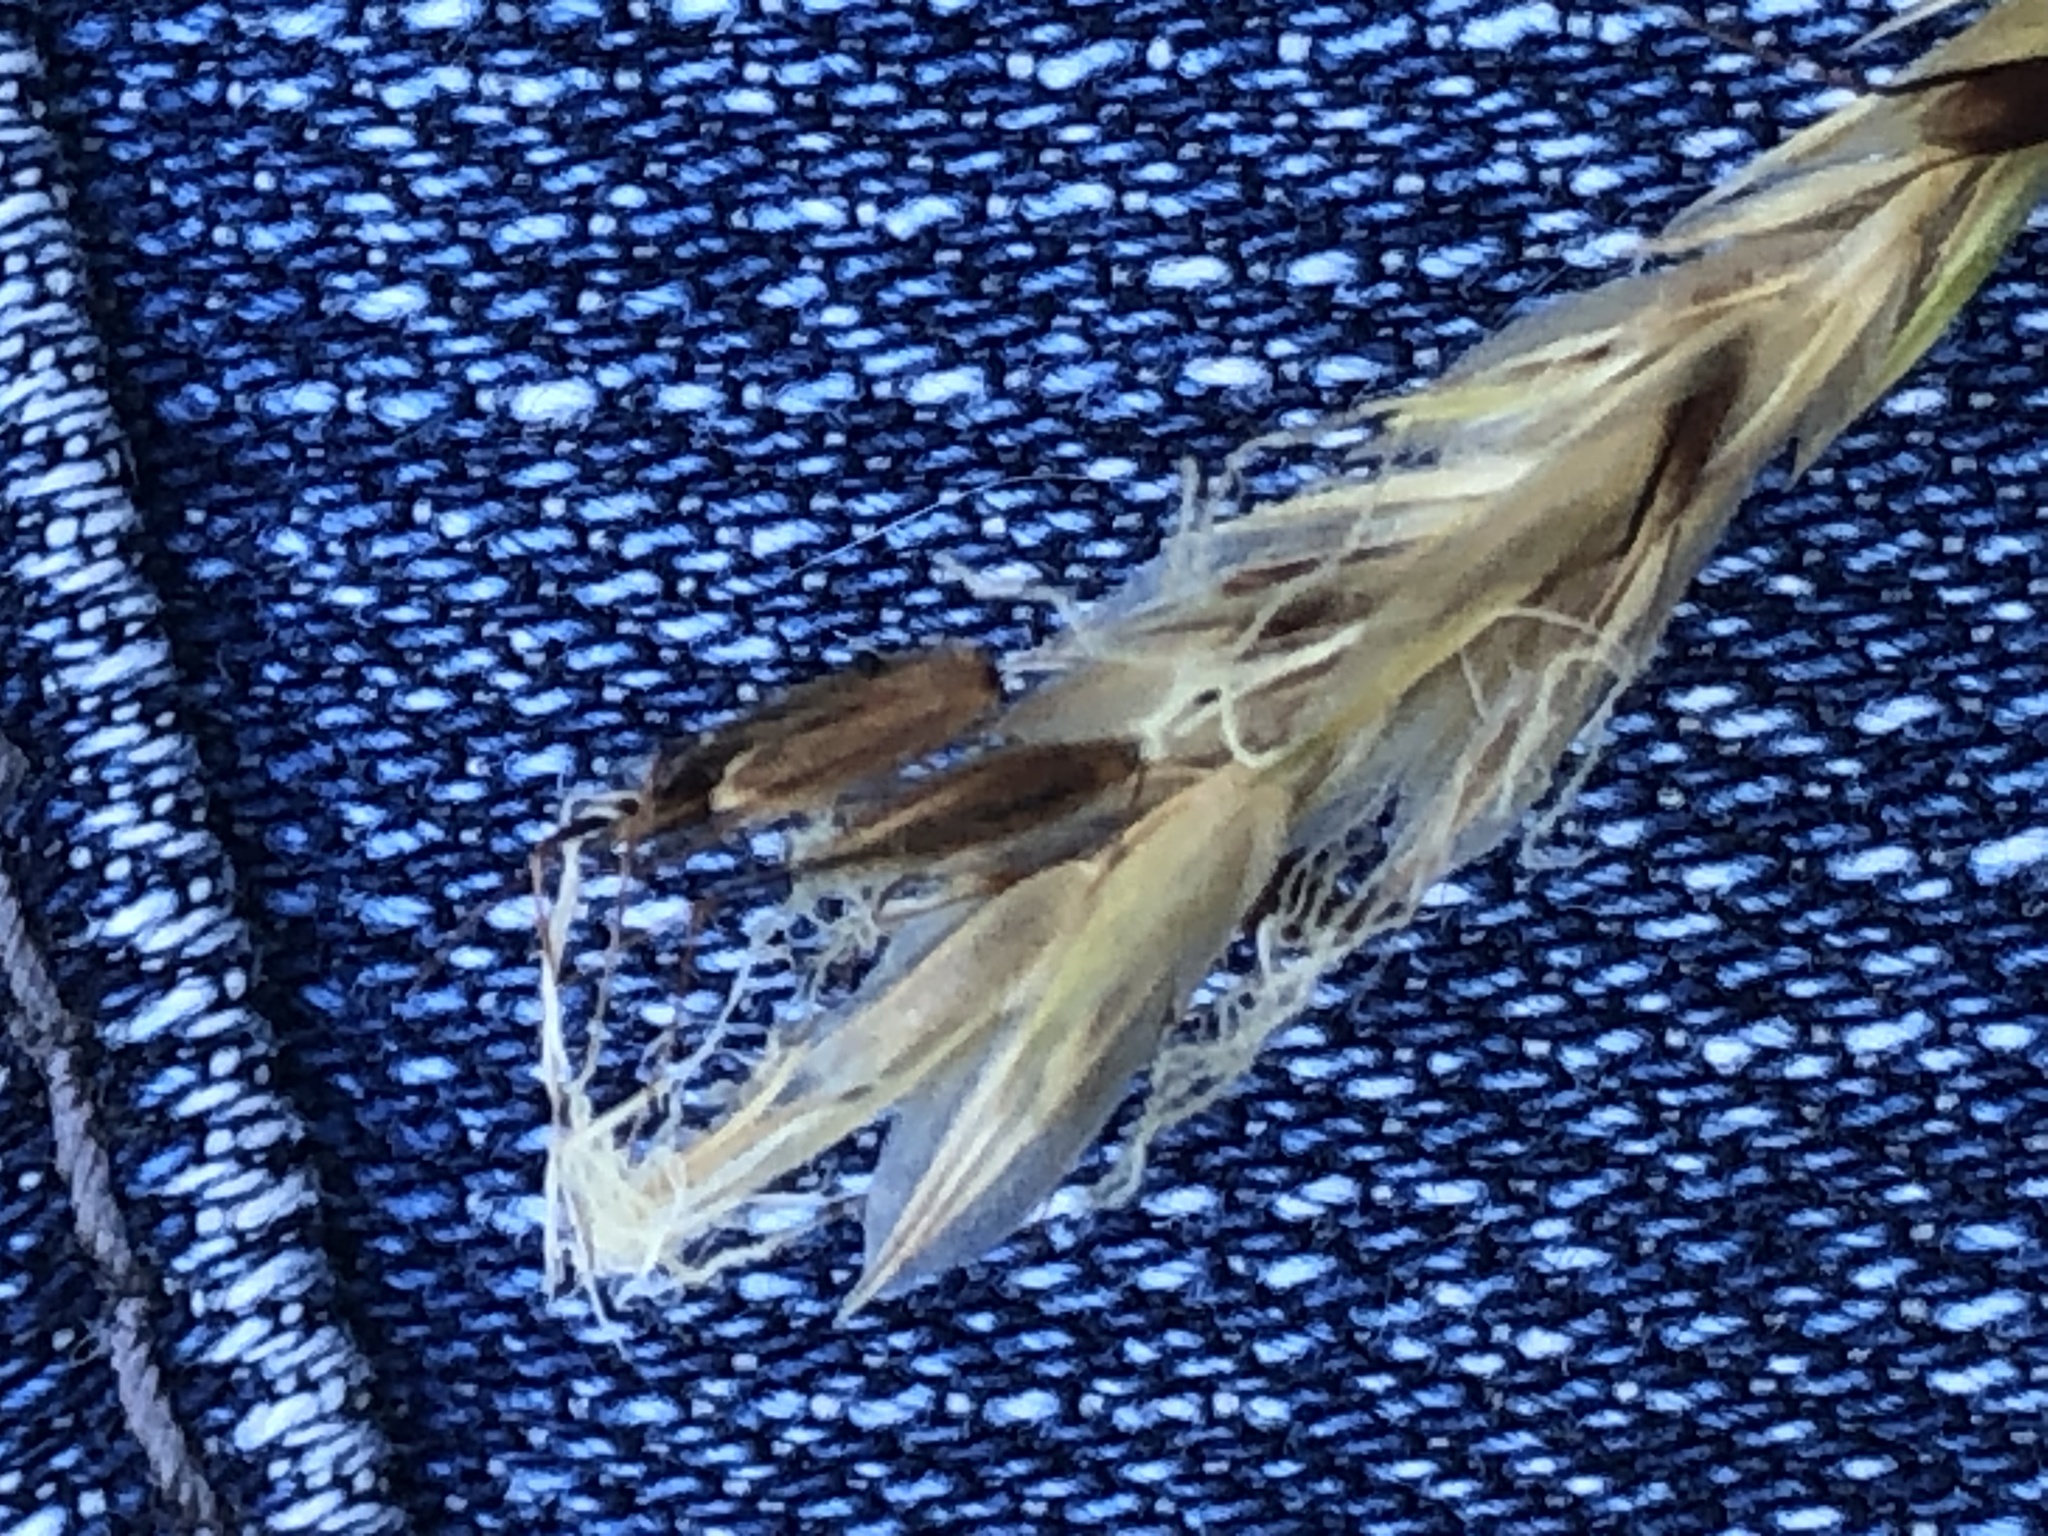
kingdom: Plantae
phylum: Tracheophyta
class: Liliopsida
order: Poales
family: Poaceae
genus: Anthoxanthum
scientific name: Anthoxanthum odoratum
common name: Sweet vernalgrass
